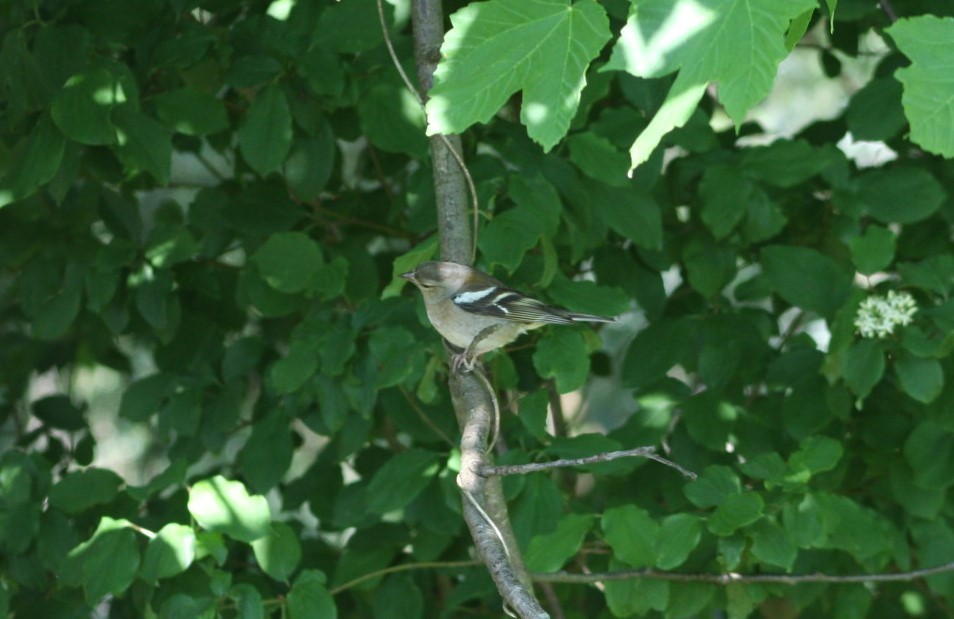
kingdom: Animalia
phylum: Chordata
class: Aves
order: Passeriformes
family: Fringillidae
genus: Fringilla
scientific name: Fringilla coelebs
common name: Common chaffinch
